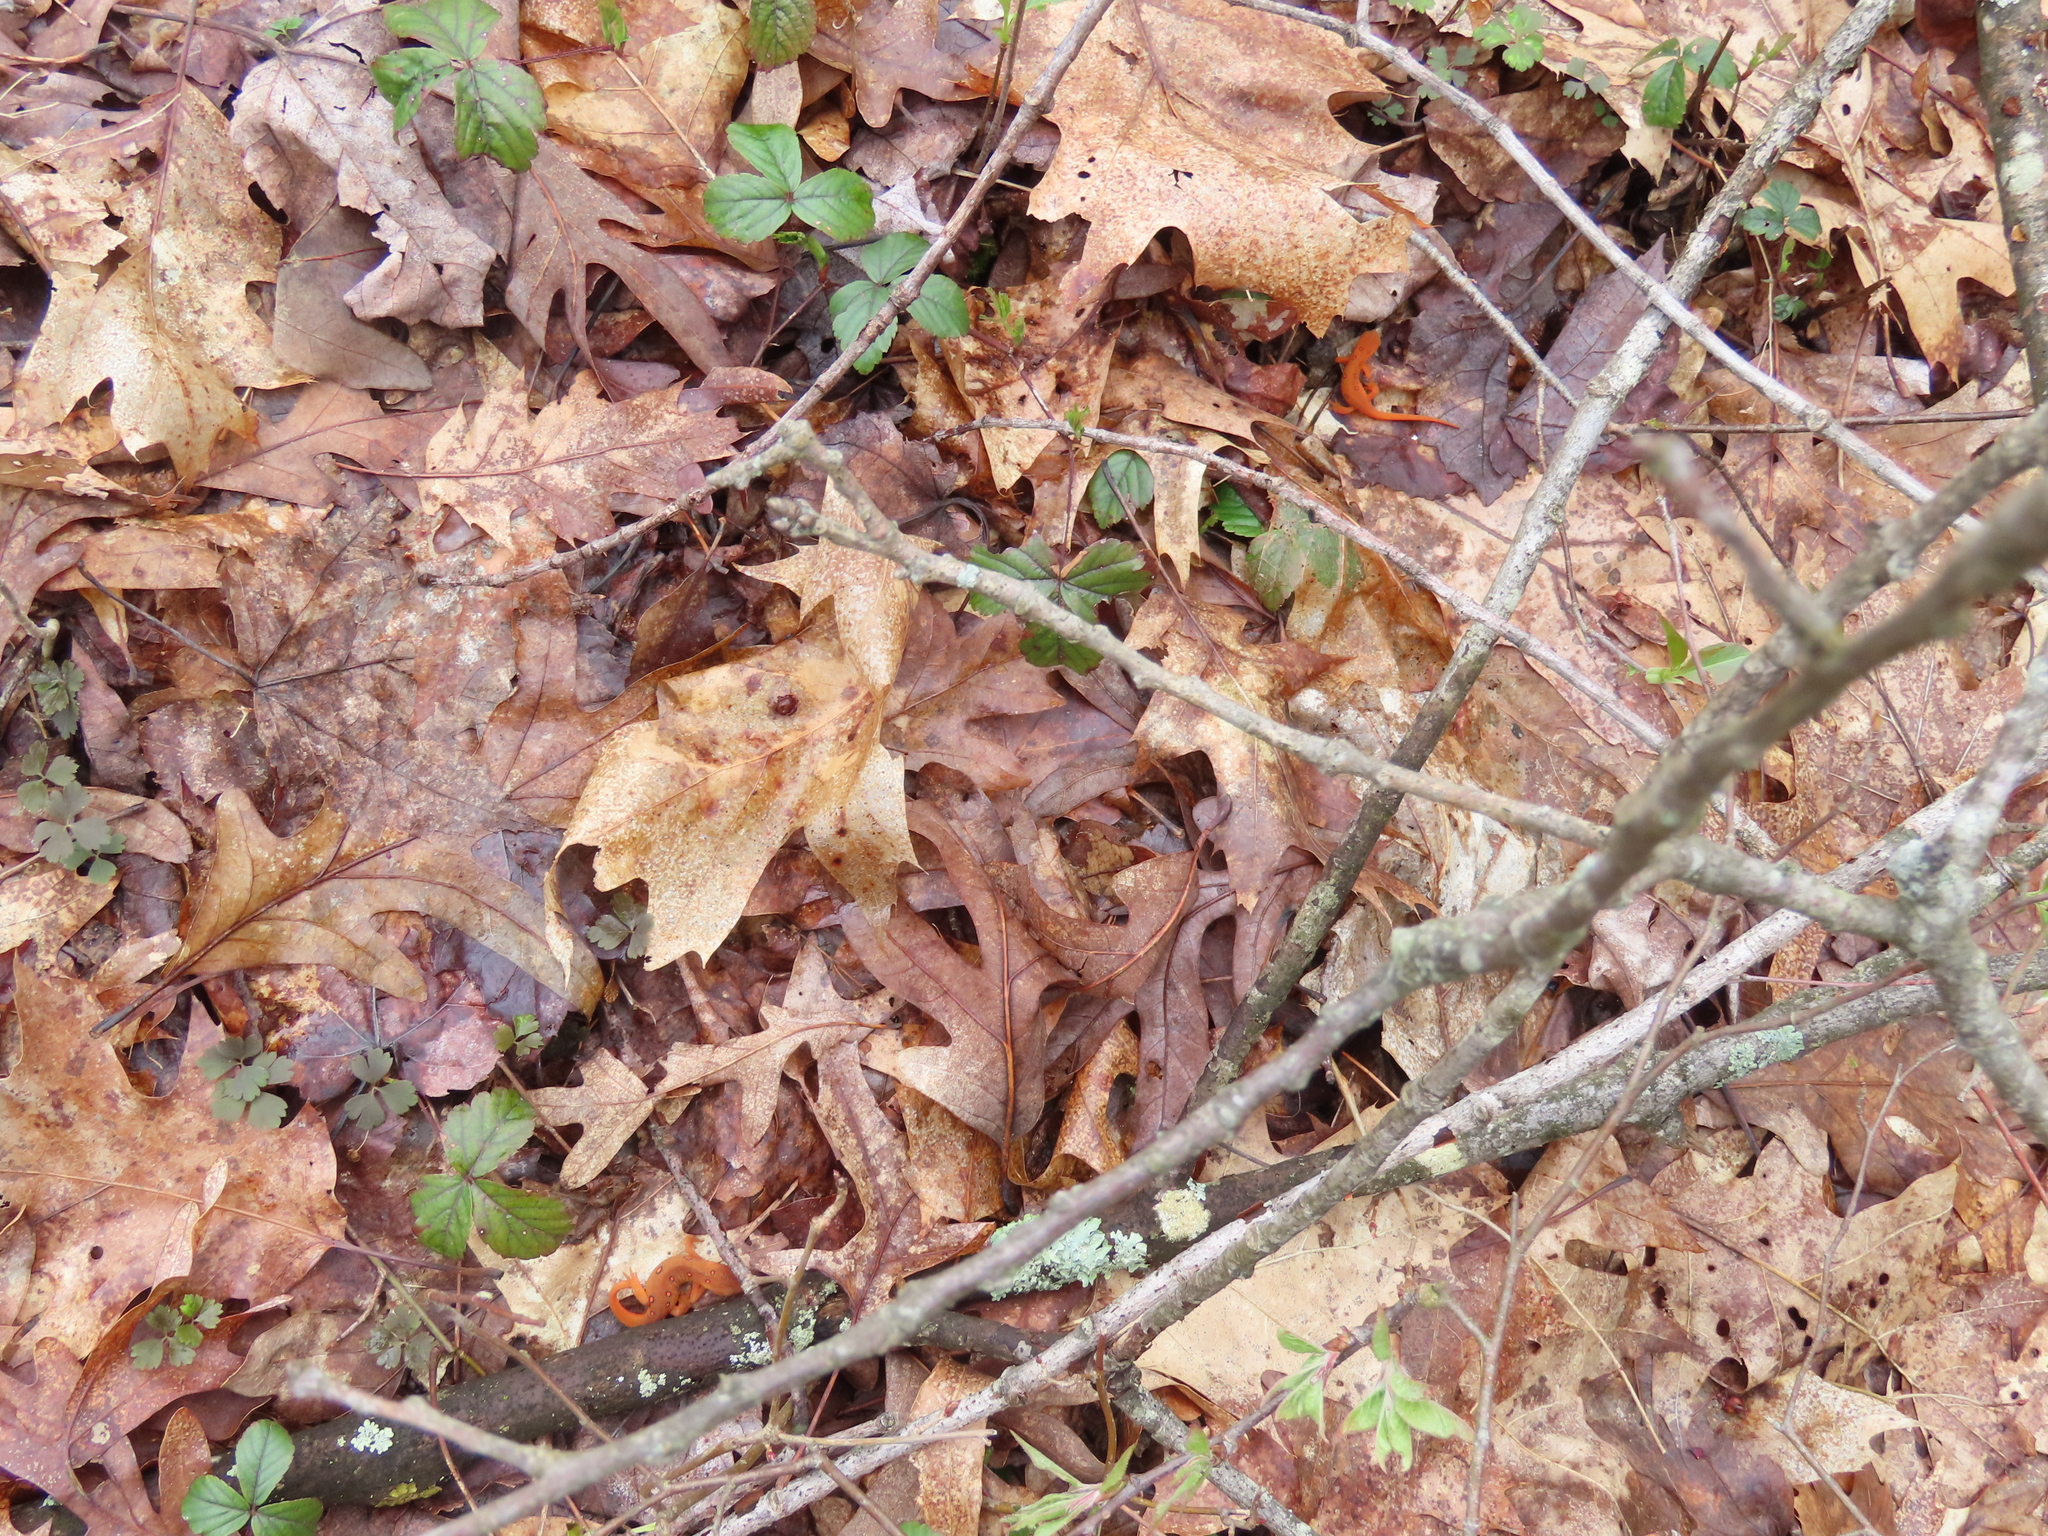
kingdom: Animalia
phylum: Chordata
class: Amphibia
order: Caudata
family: Salamandridae
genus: Notophthalmus
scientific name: Notophthalmus viridescens
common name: Eastern newt
